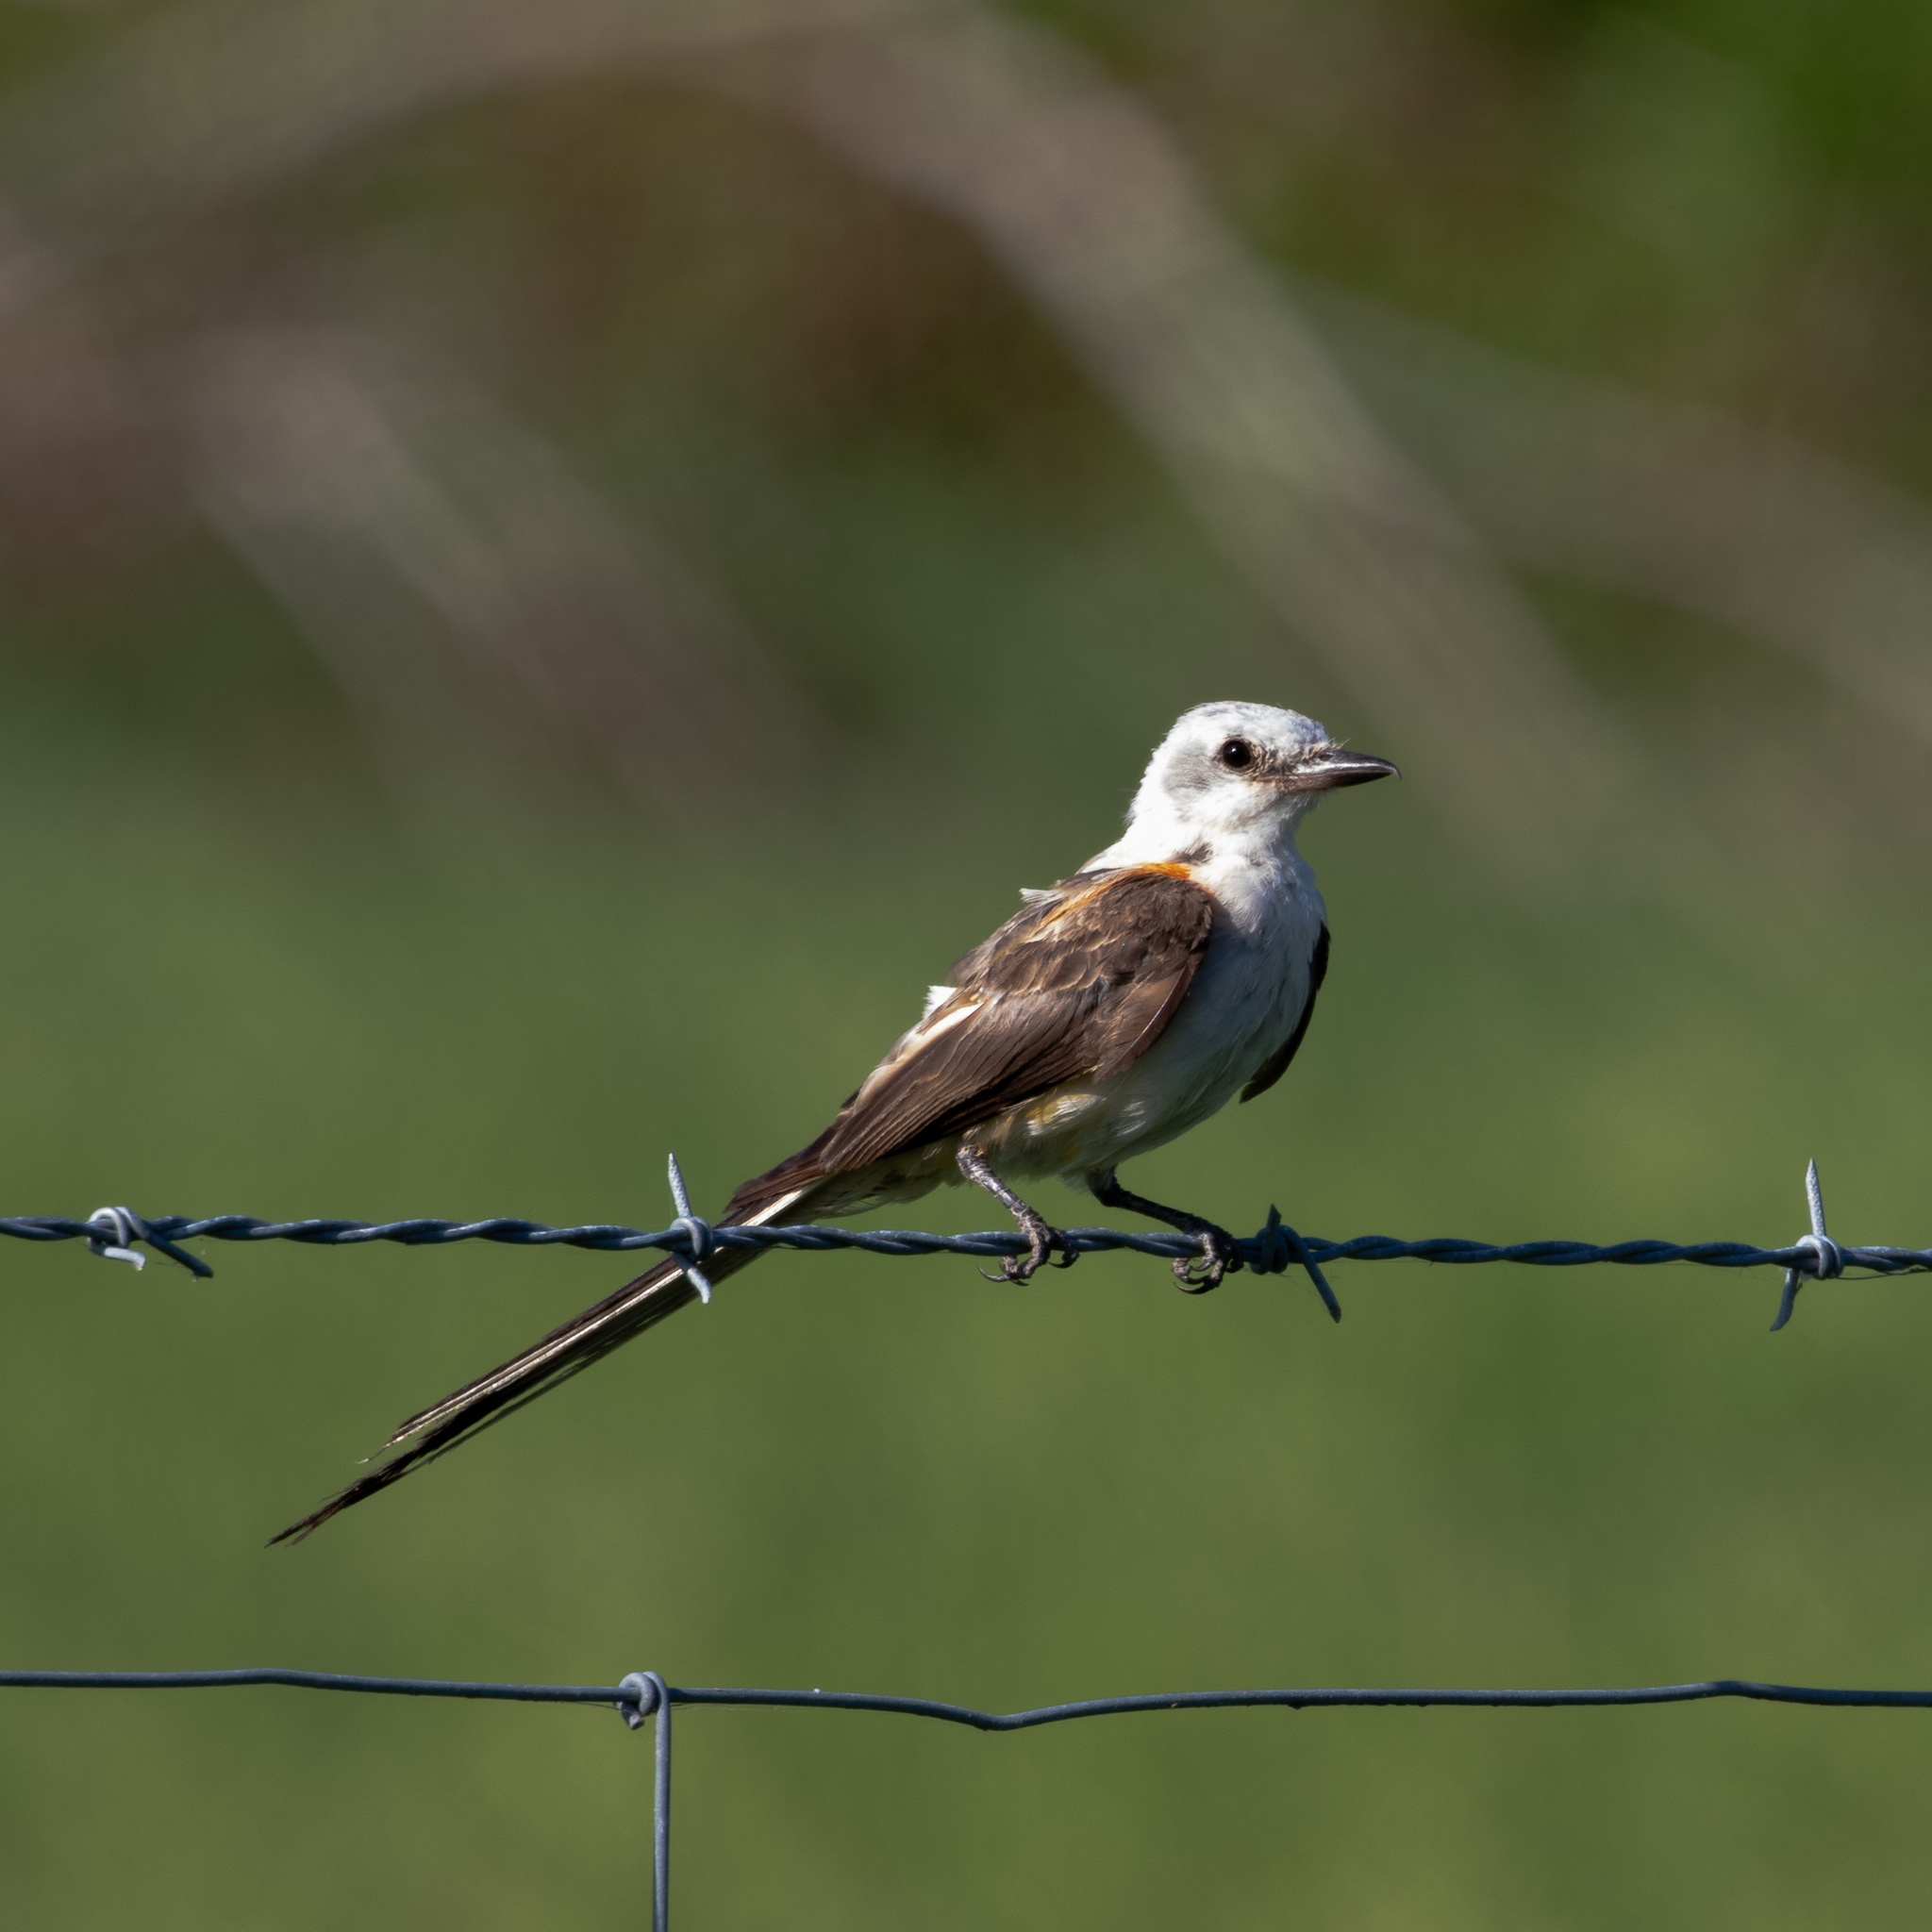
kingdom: Animalia
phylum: Chordata
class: Aves
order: Passeriformes
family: Tyrannidae
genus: Tyrannus
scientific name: Tyrannus forficatus
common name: Scissor-tailed flycatcher
